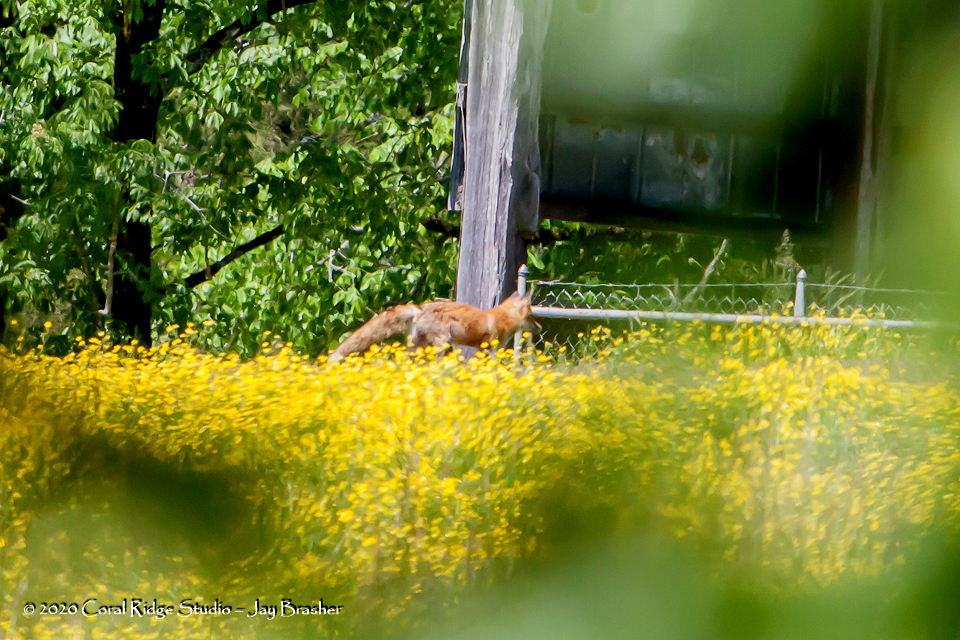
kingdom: Animalia
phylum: Chordata
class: Mammalia
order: Carnivora
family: Canidae
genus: Vulpes
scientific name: Vulpes vulpes
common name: Red fox
